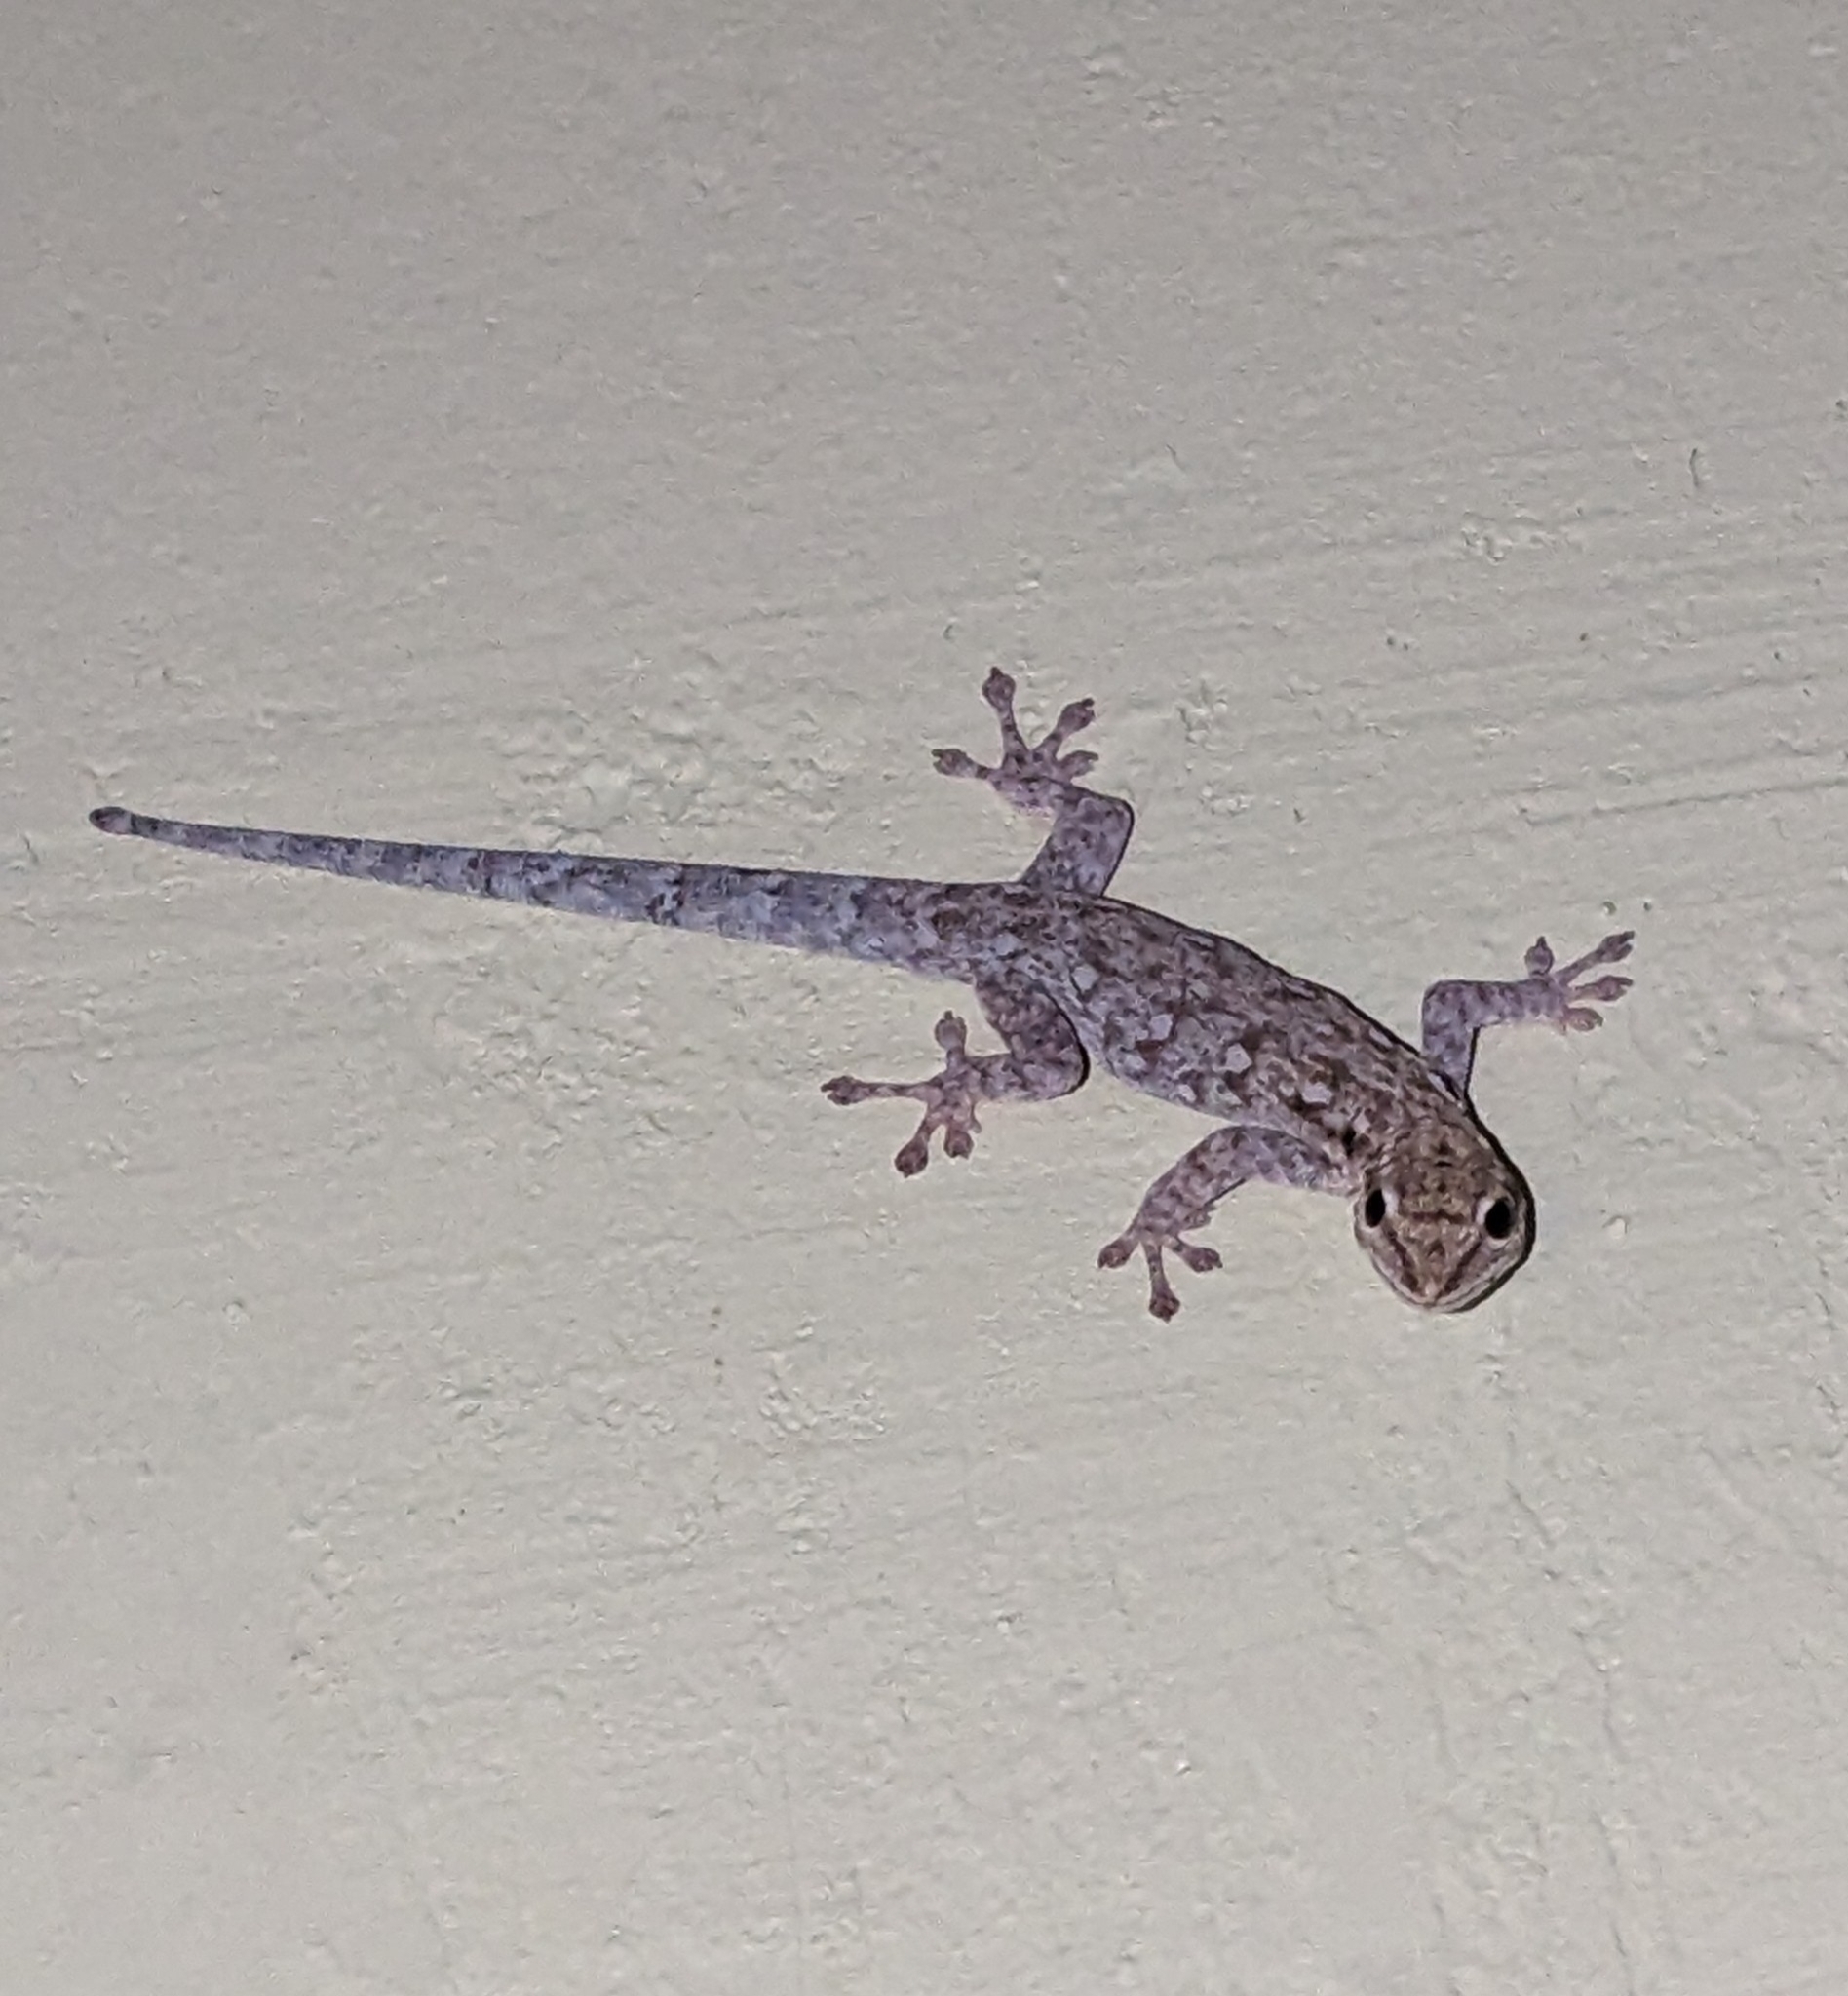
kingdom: Animalia
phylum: Chordata
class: Squamata
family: Gekkonidae
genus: Lygodactylus
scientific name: Lygodactylus chobiensis
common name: Okavango dwarf gecko
